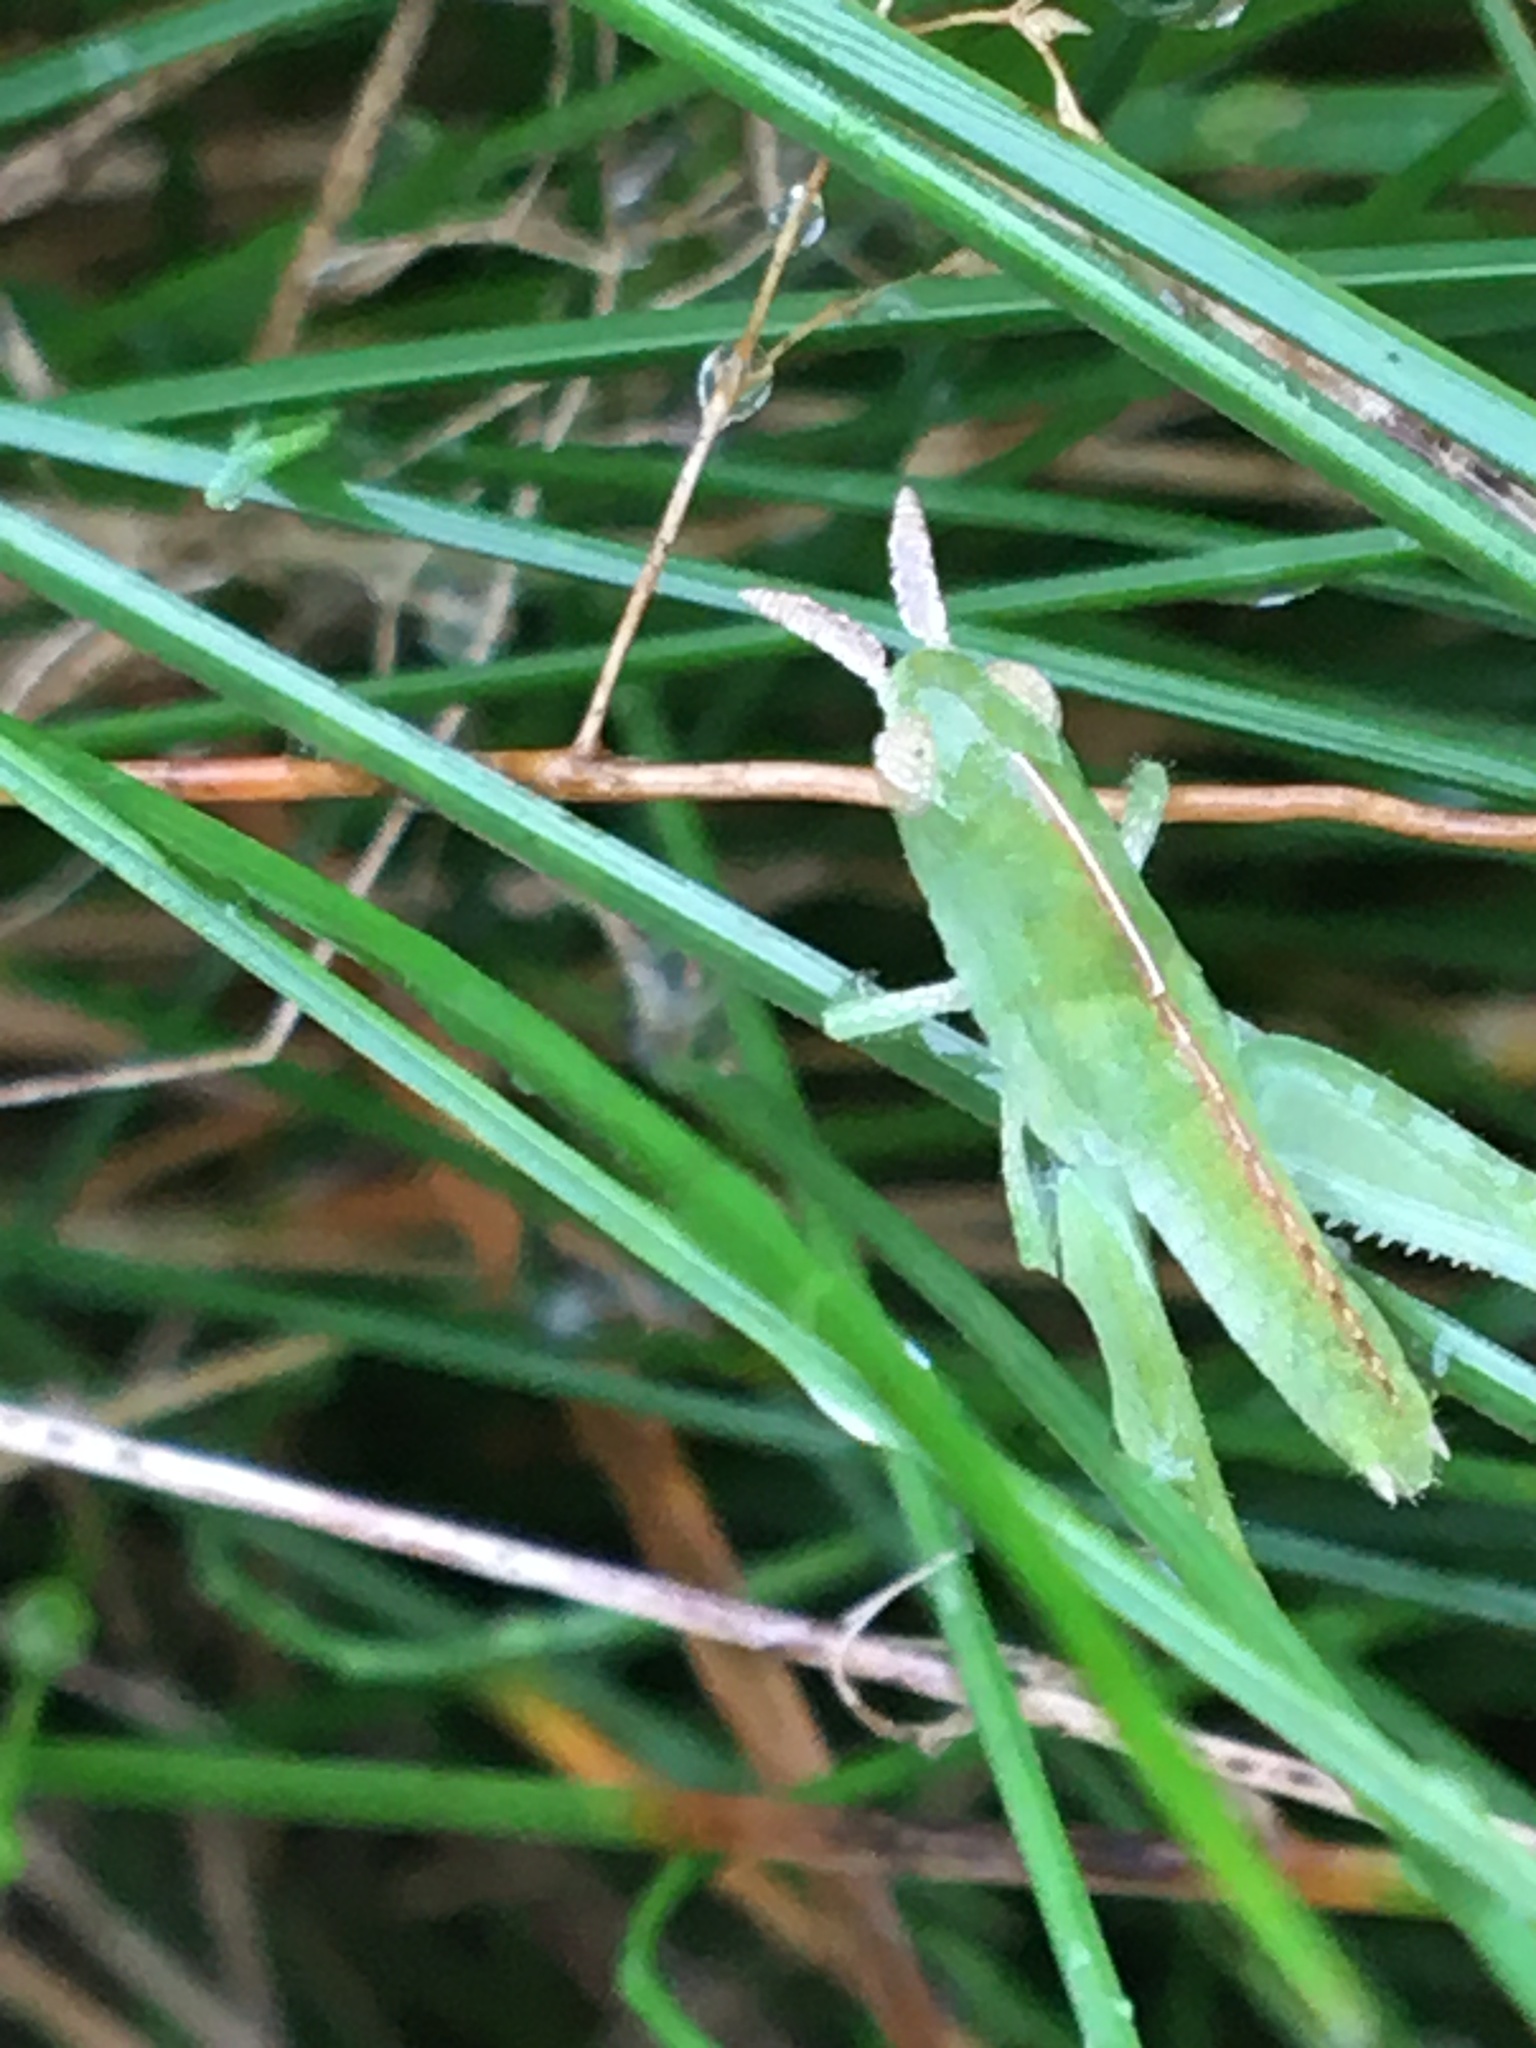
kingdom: Animalia
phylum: Arthropoda
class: Insecta
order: Orthoptera
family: Acrididae
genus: Chortophaga
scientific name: Chortophaga viridifasciata
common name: Green-striped grasshopper
